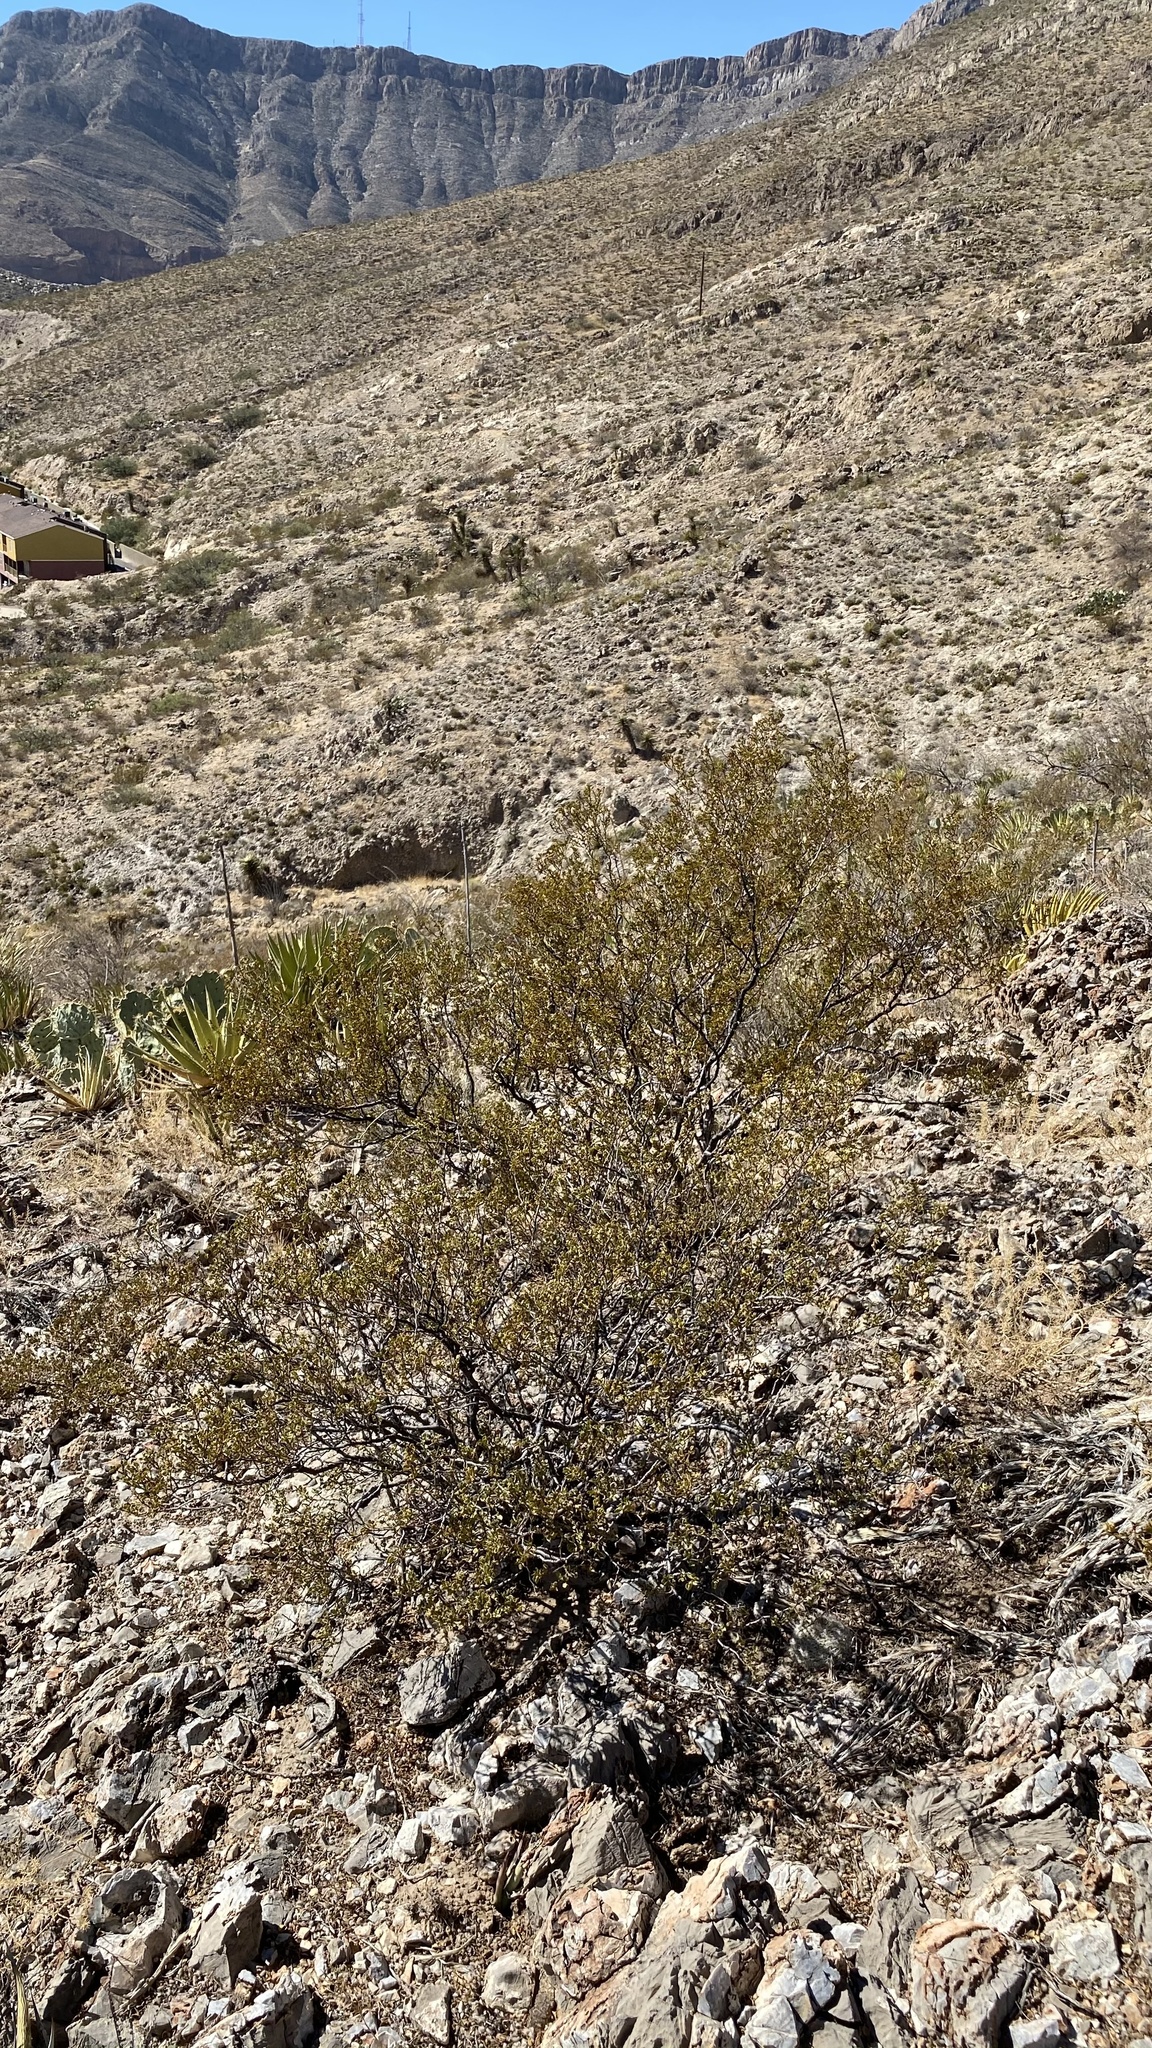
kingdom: Plantae
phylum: Tracheophyta
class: Magnoliopsida
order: Zygophyllales
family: Zygophyllaceae
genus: Larrea
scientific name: Larrea tridentata
